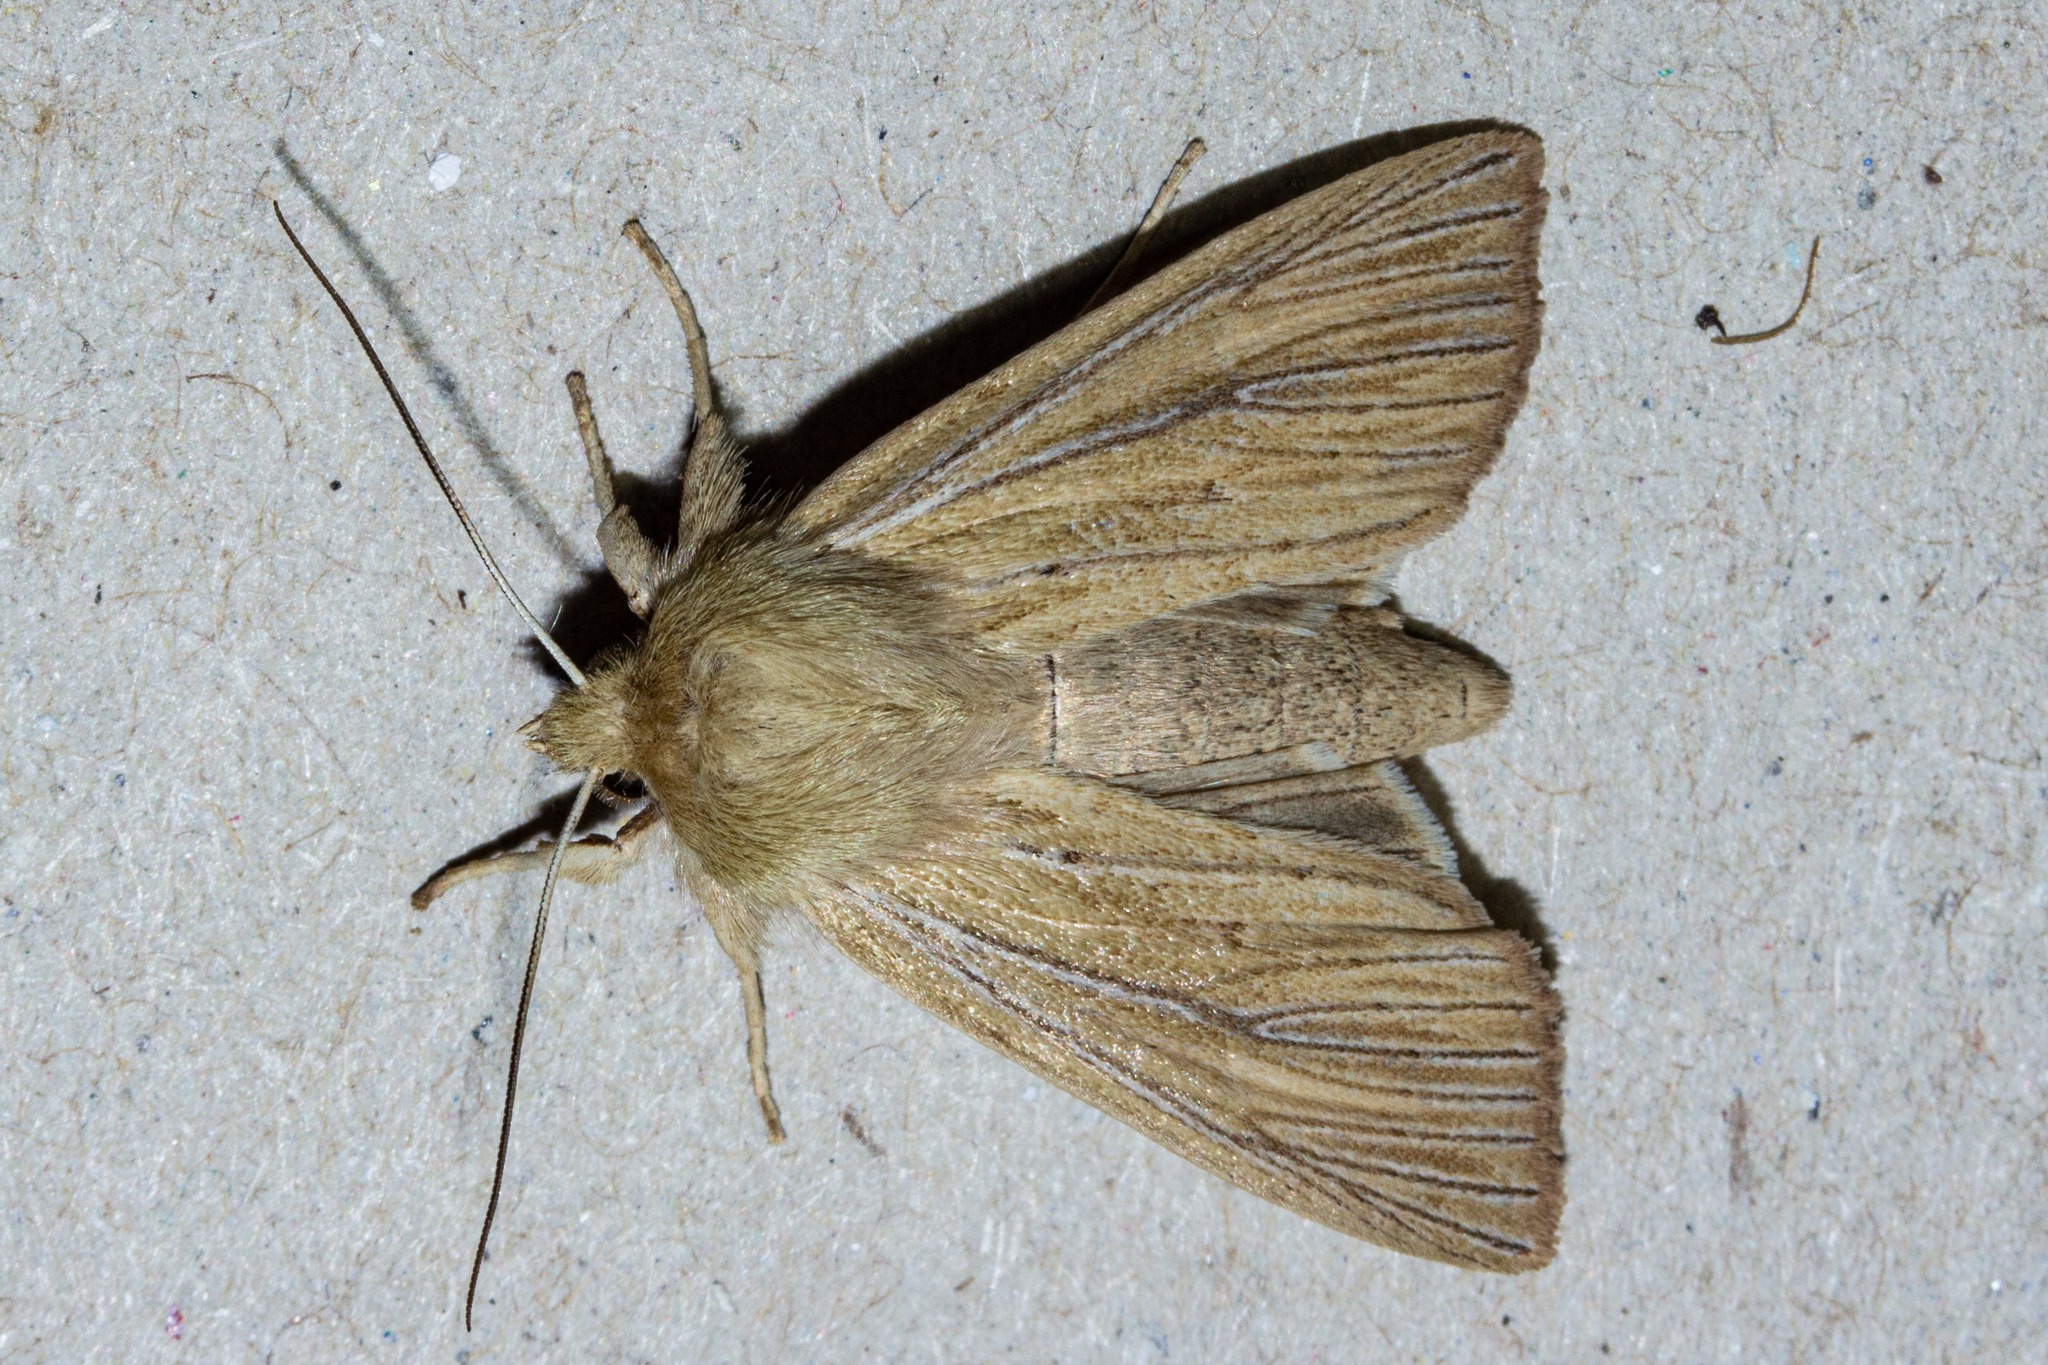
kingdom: Animalia
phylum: Arthropoda
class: Insecta
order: Lepidoptera
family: Noctuidae
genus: Ichneutica
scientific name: Ichneutica arotis
